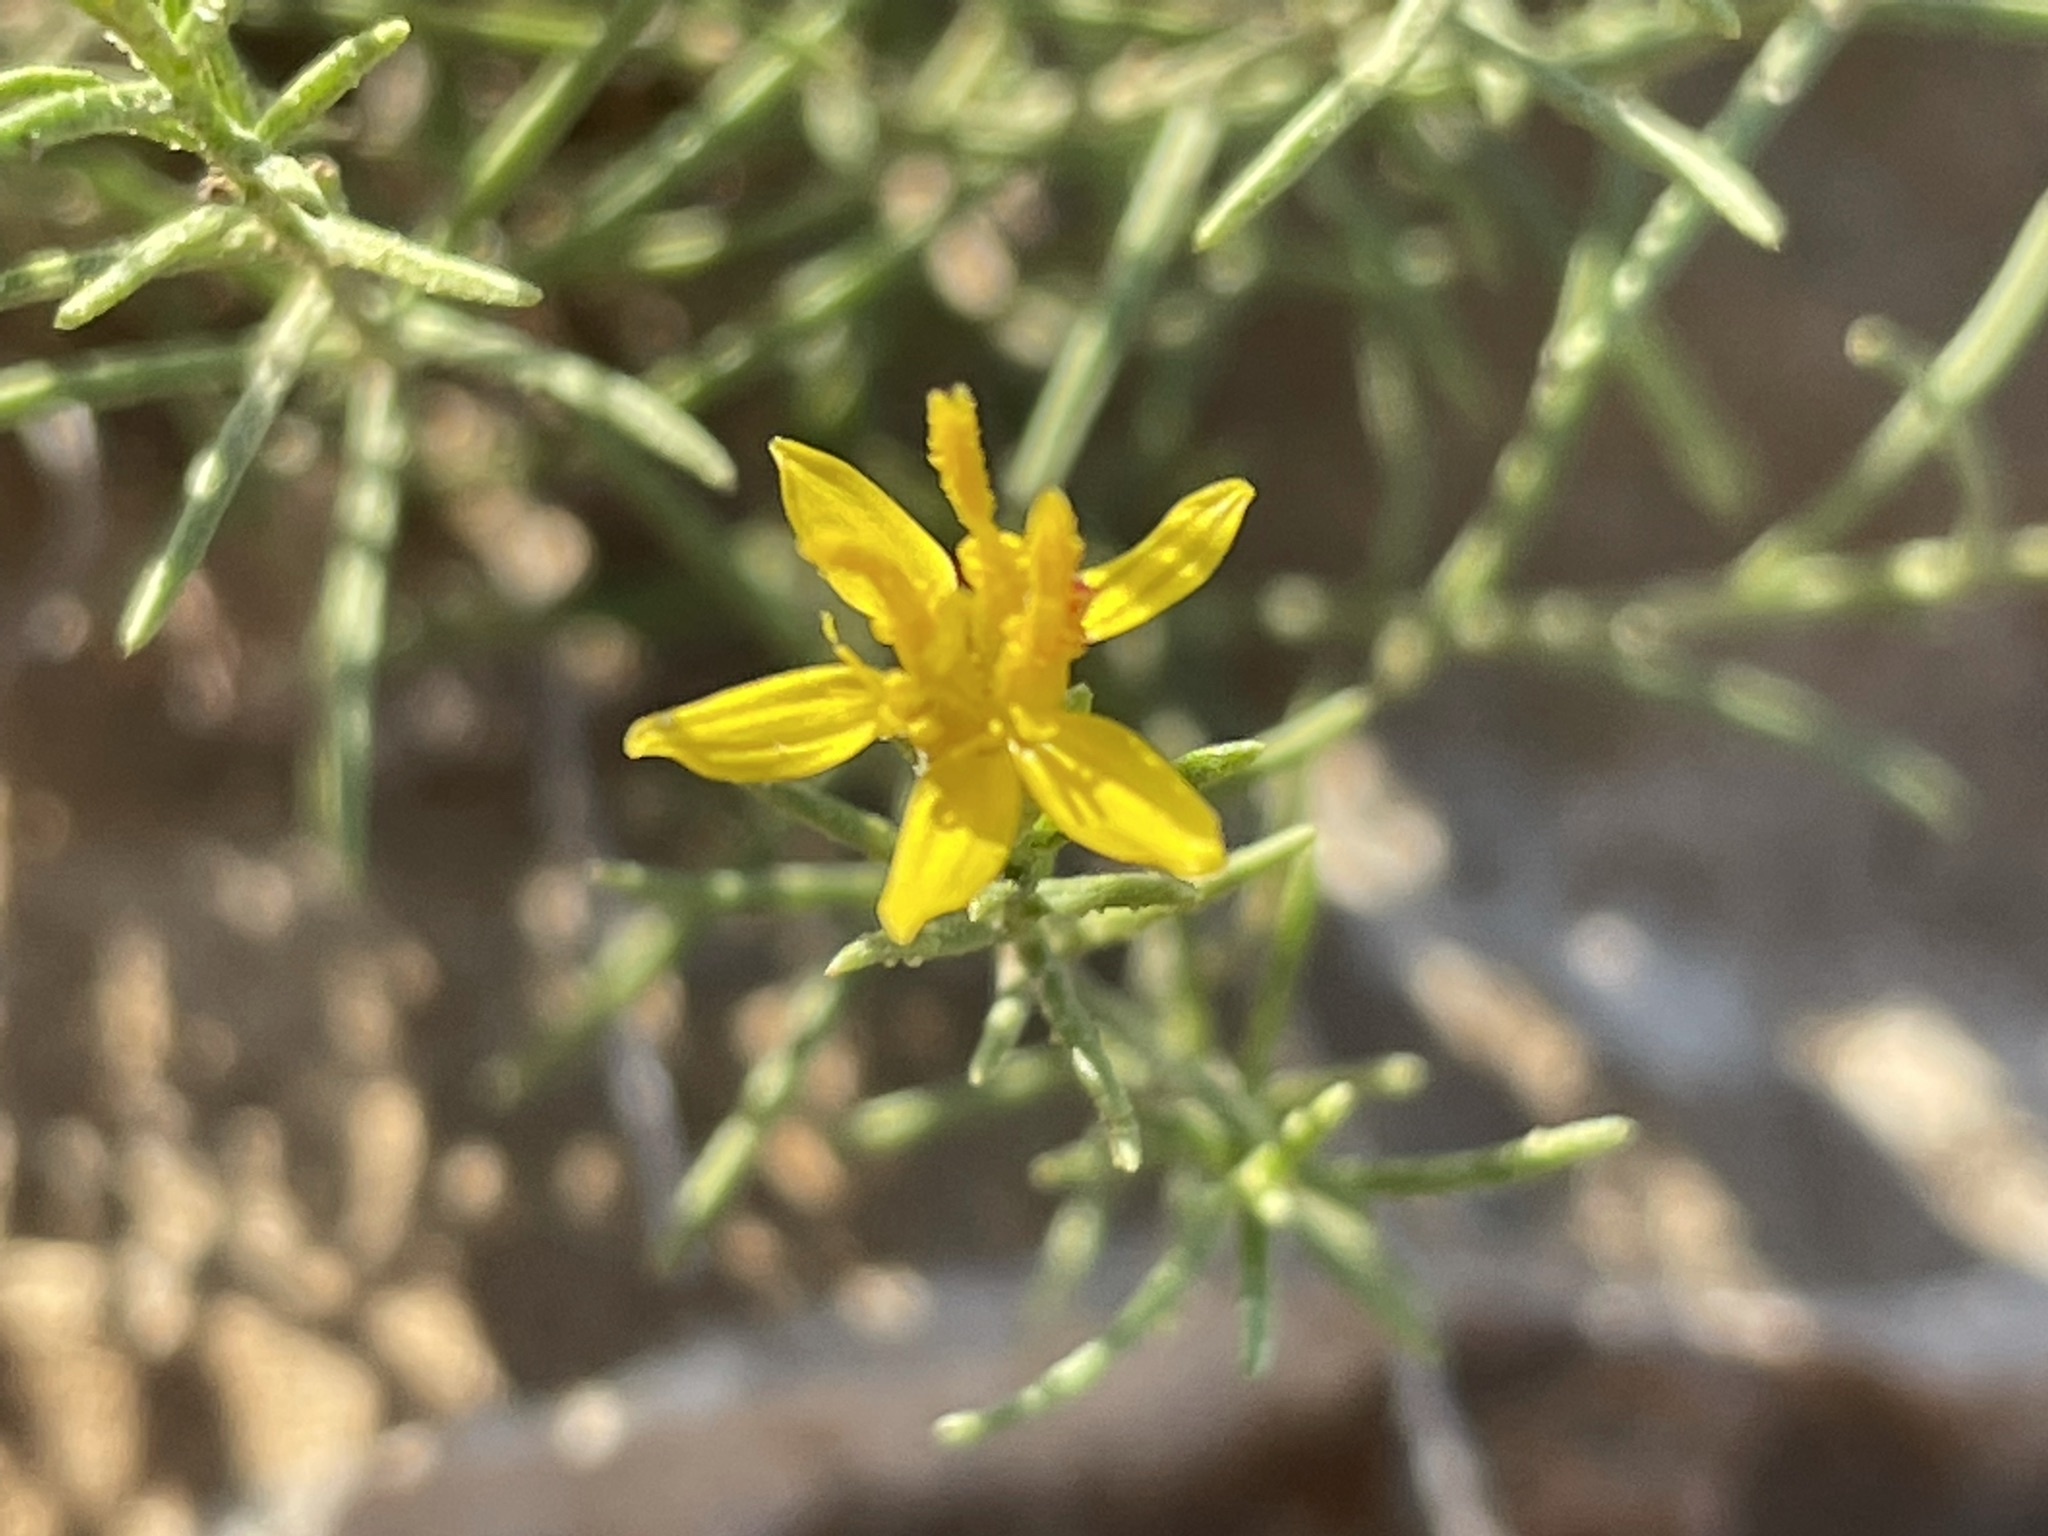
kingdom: Plantae
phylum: Tracheophyta
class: Magnoliopsida
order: Asterales
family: Asteraceae
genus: Gutierrezia
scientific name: Gutierrezia sarothrae
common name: Broom snakeweed
